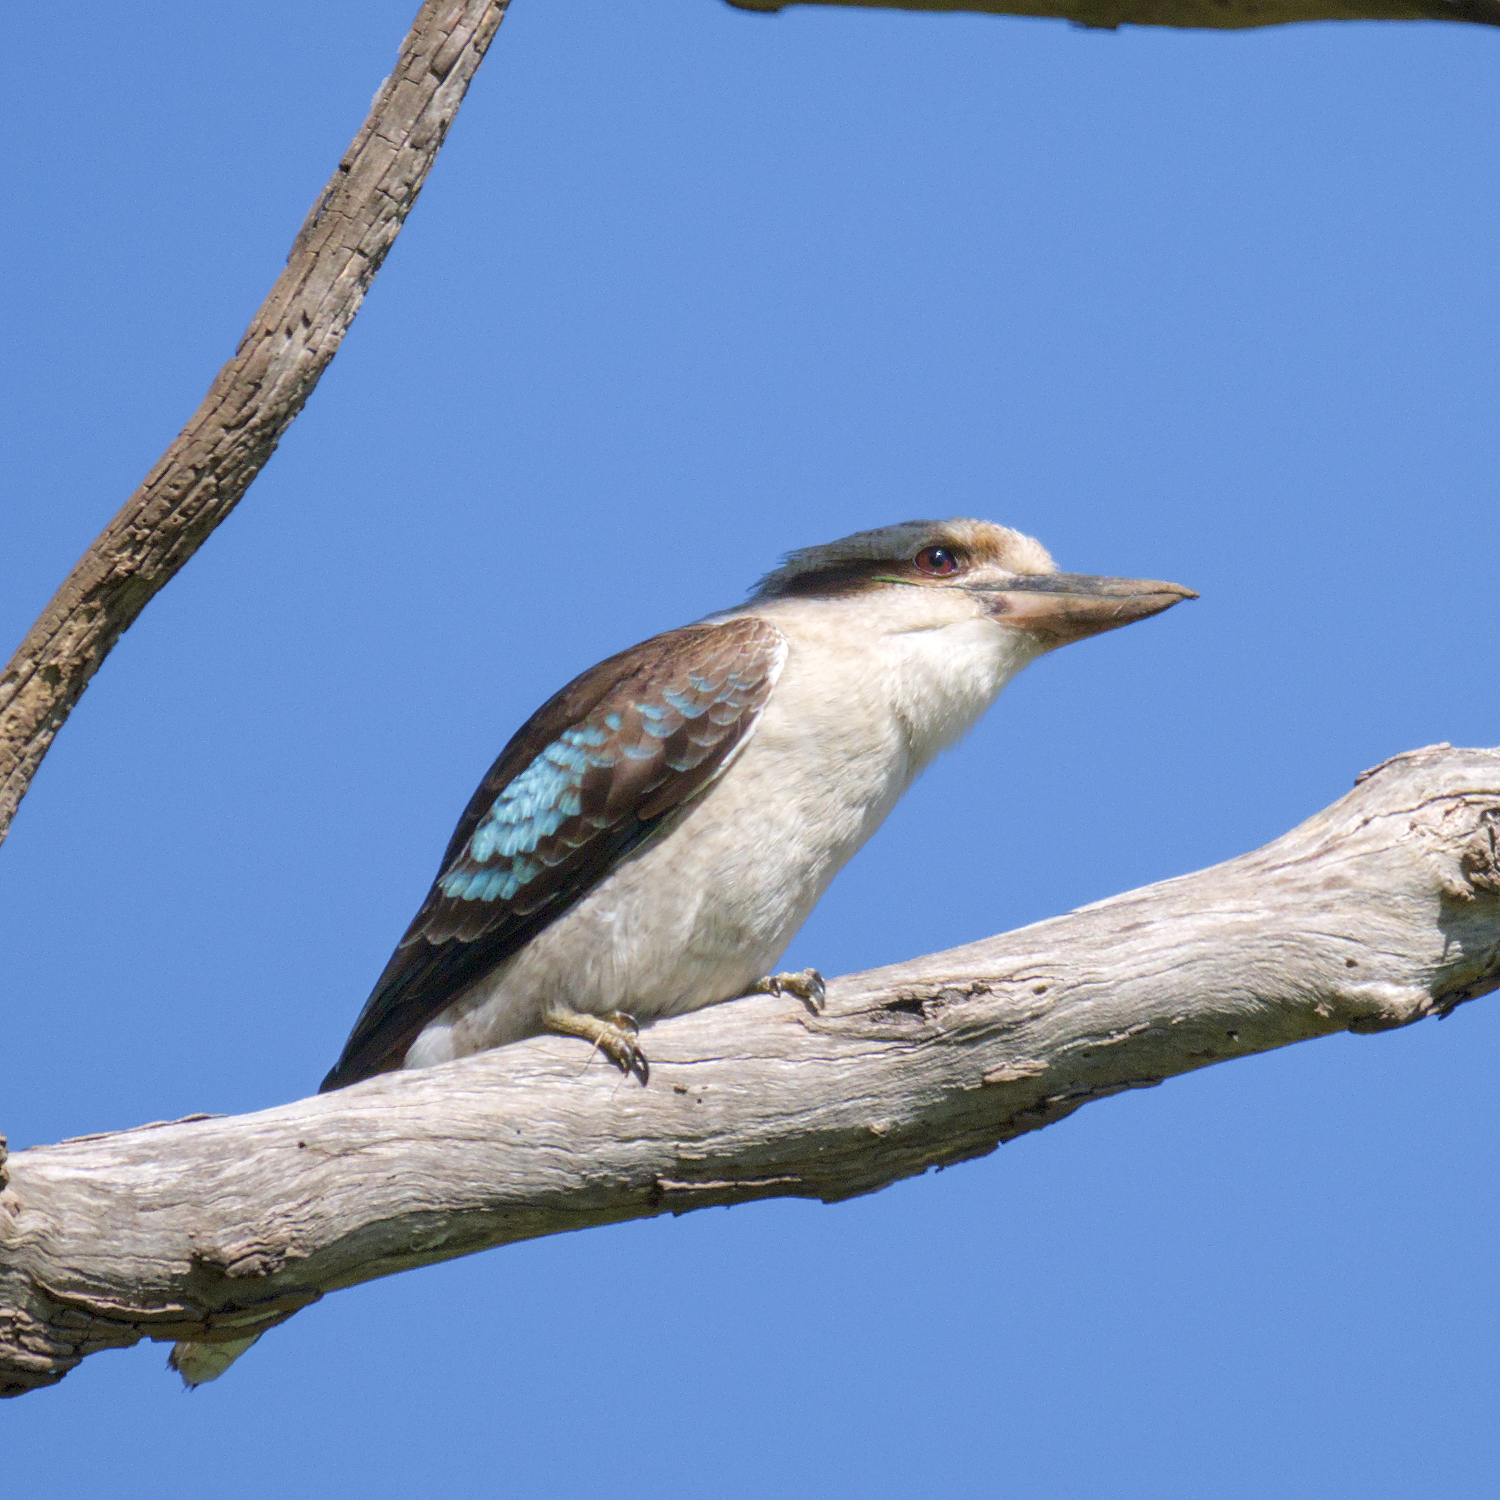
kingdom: Animalia
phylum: Chordata
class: Aves
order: Coraciiformes
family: Alcedinidae
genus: Dacelo
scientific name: Dacelo novaeguineae
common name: Laughing kookaburra
